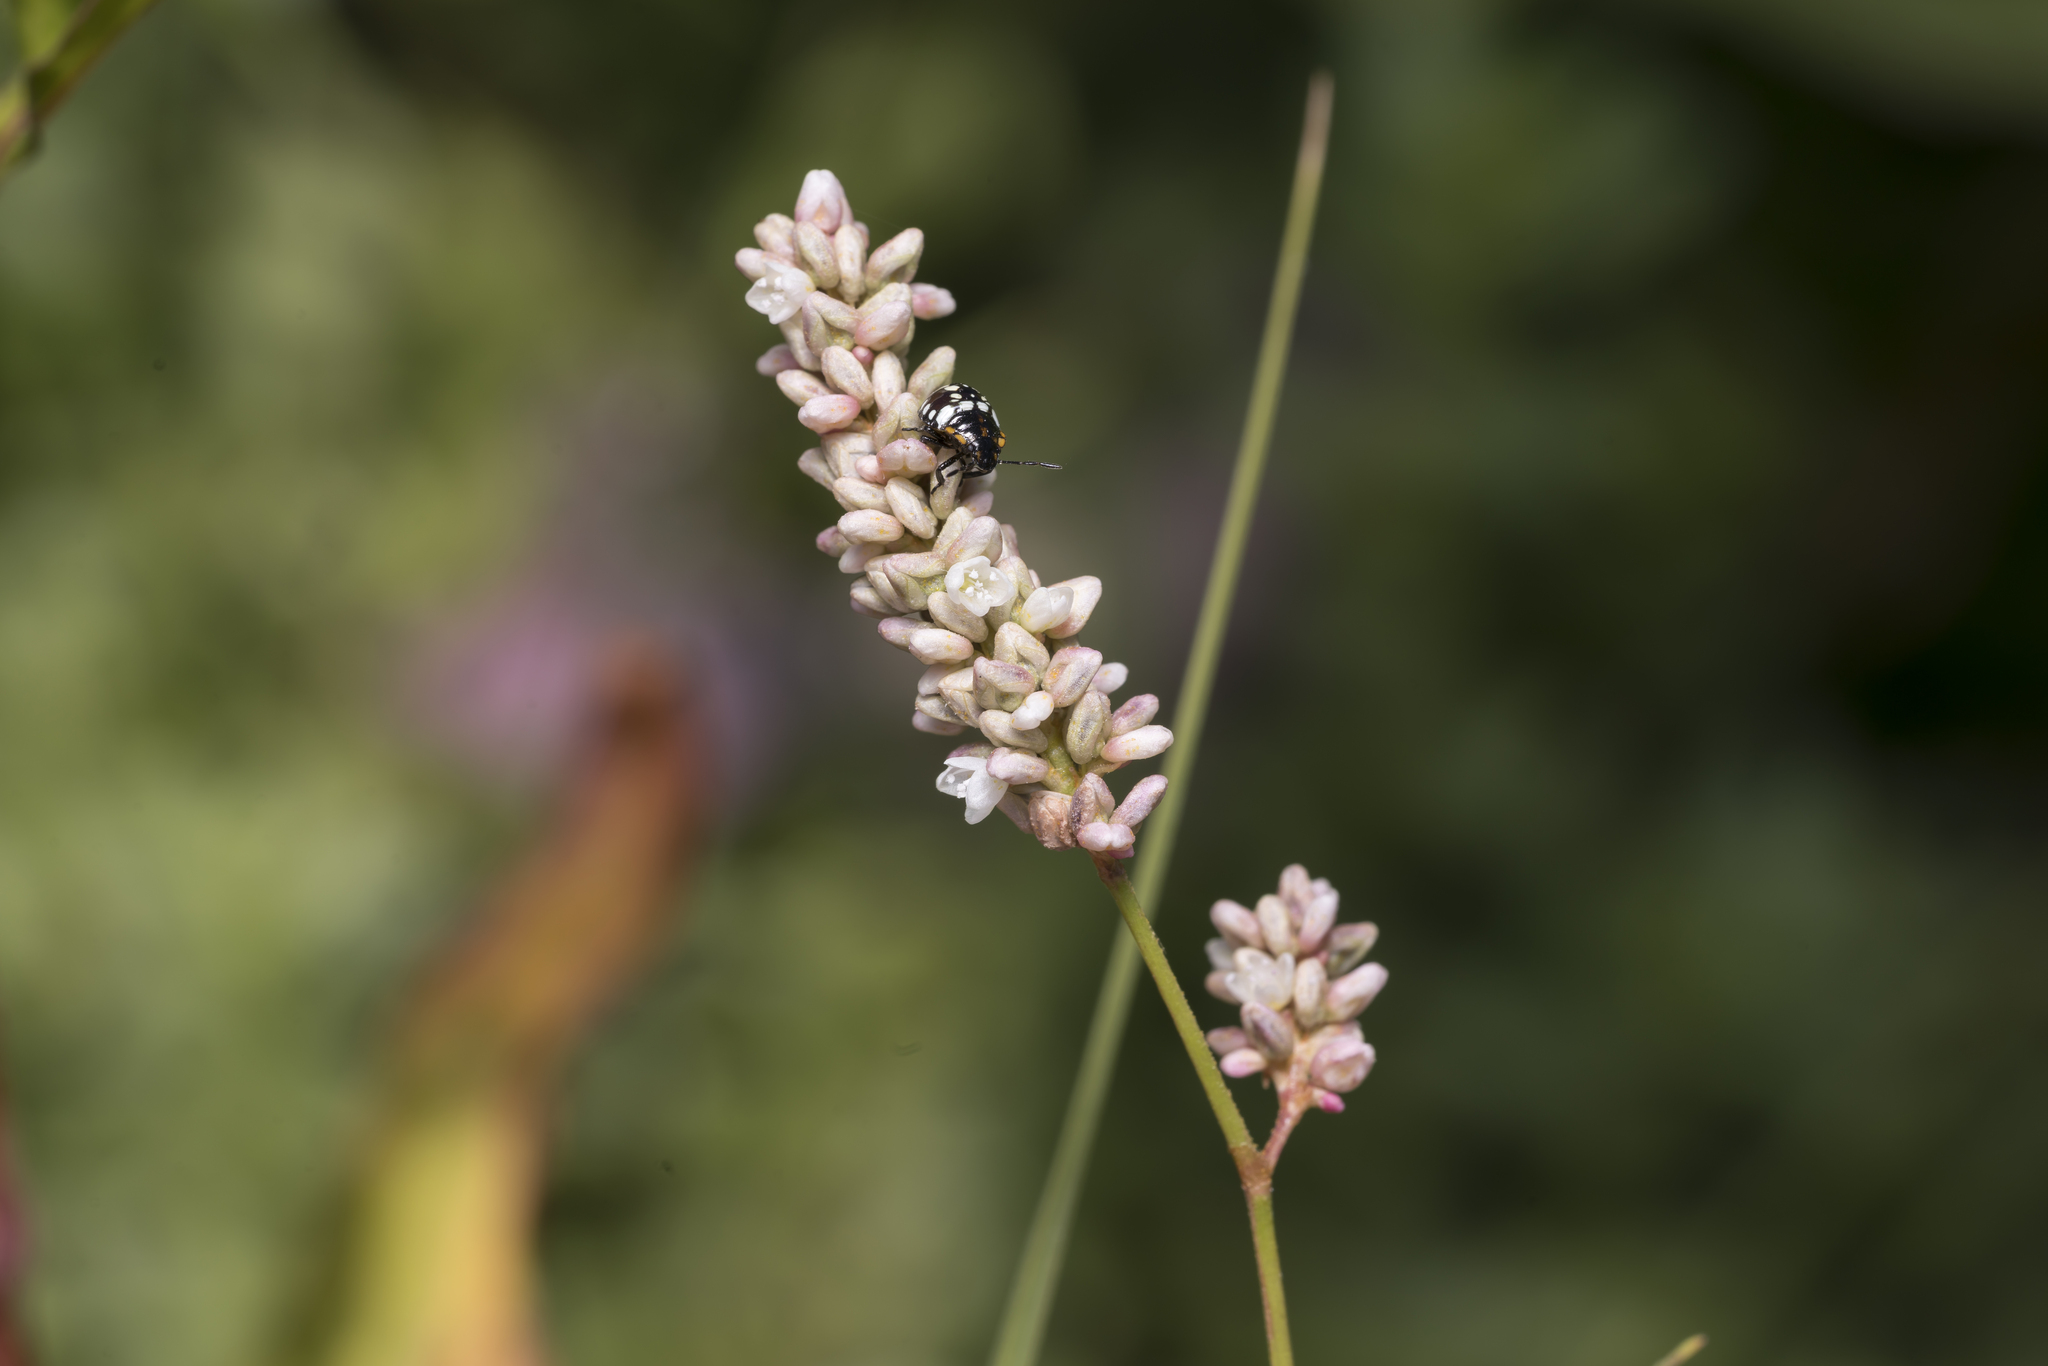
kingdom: Plantae
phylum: Tracheophyta
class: Magnoliopsida
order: Caryophyllales
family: Polygonaceae
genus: Persicaria
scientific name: Persicaria maculosa
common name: Redshank
